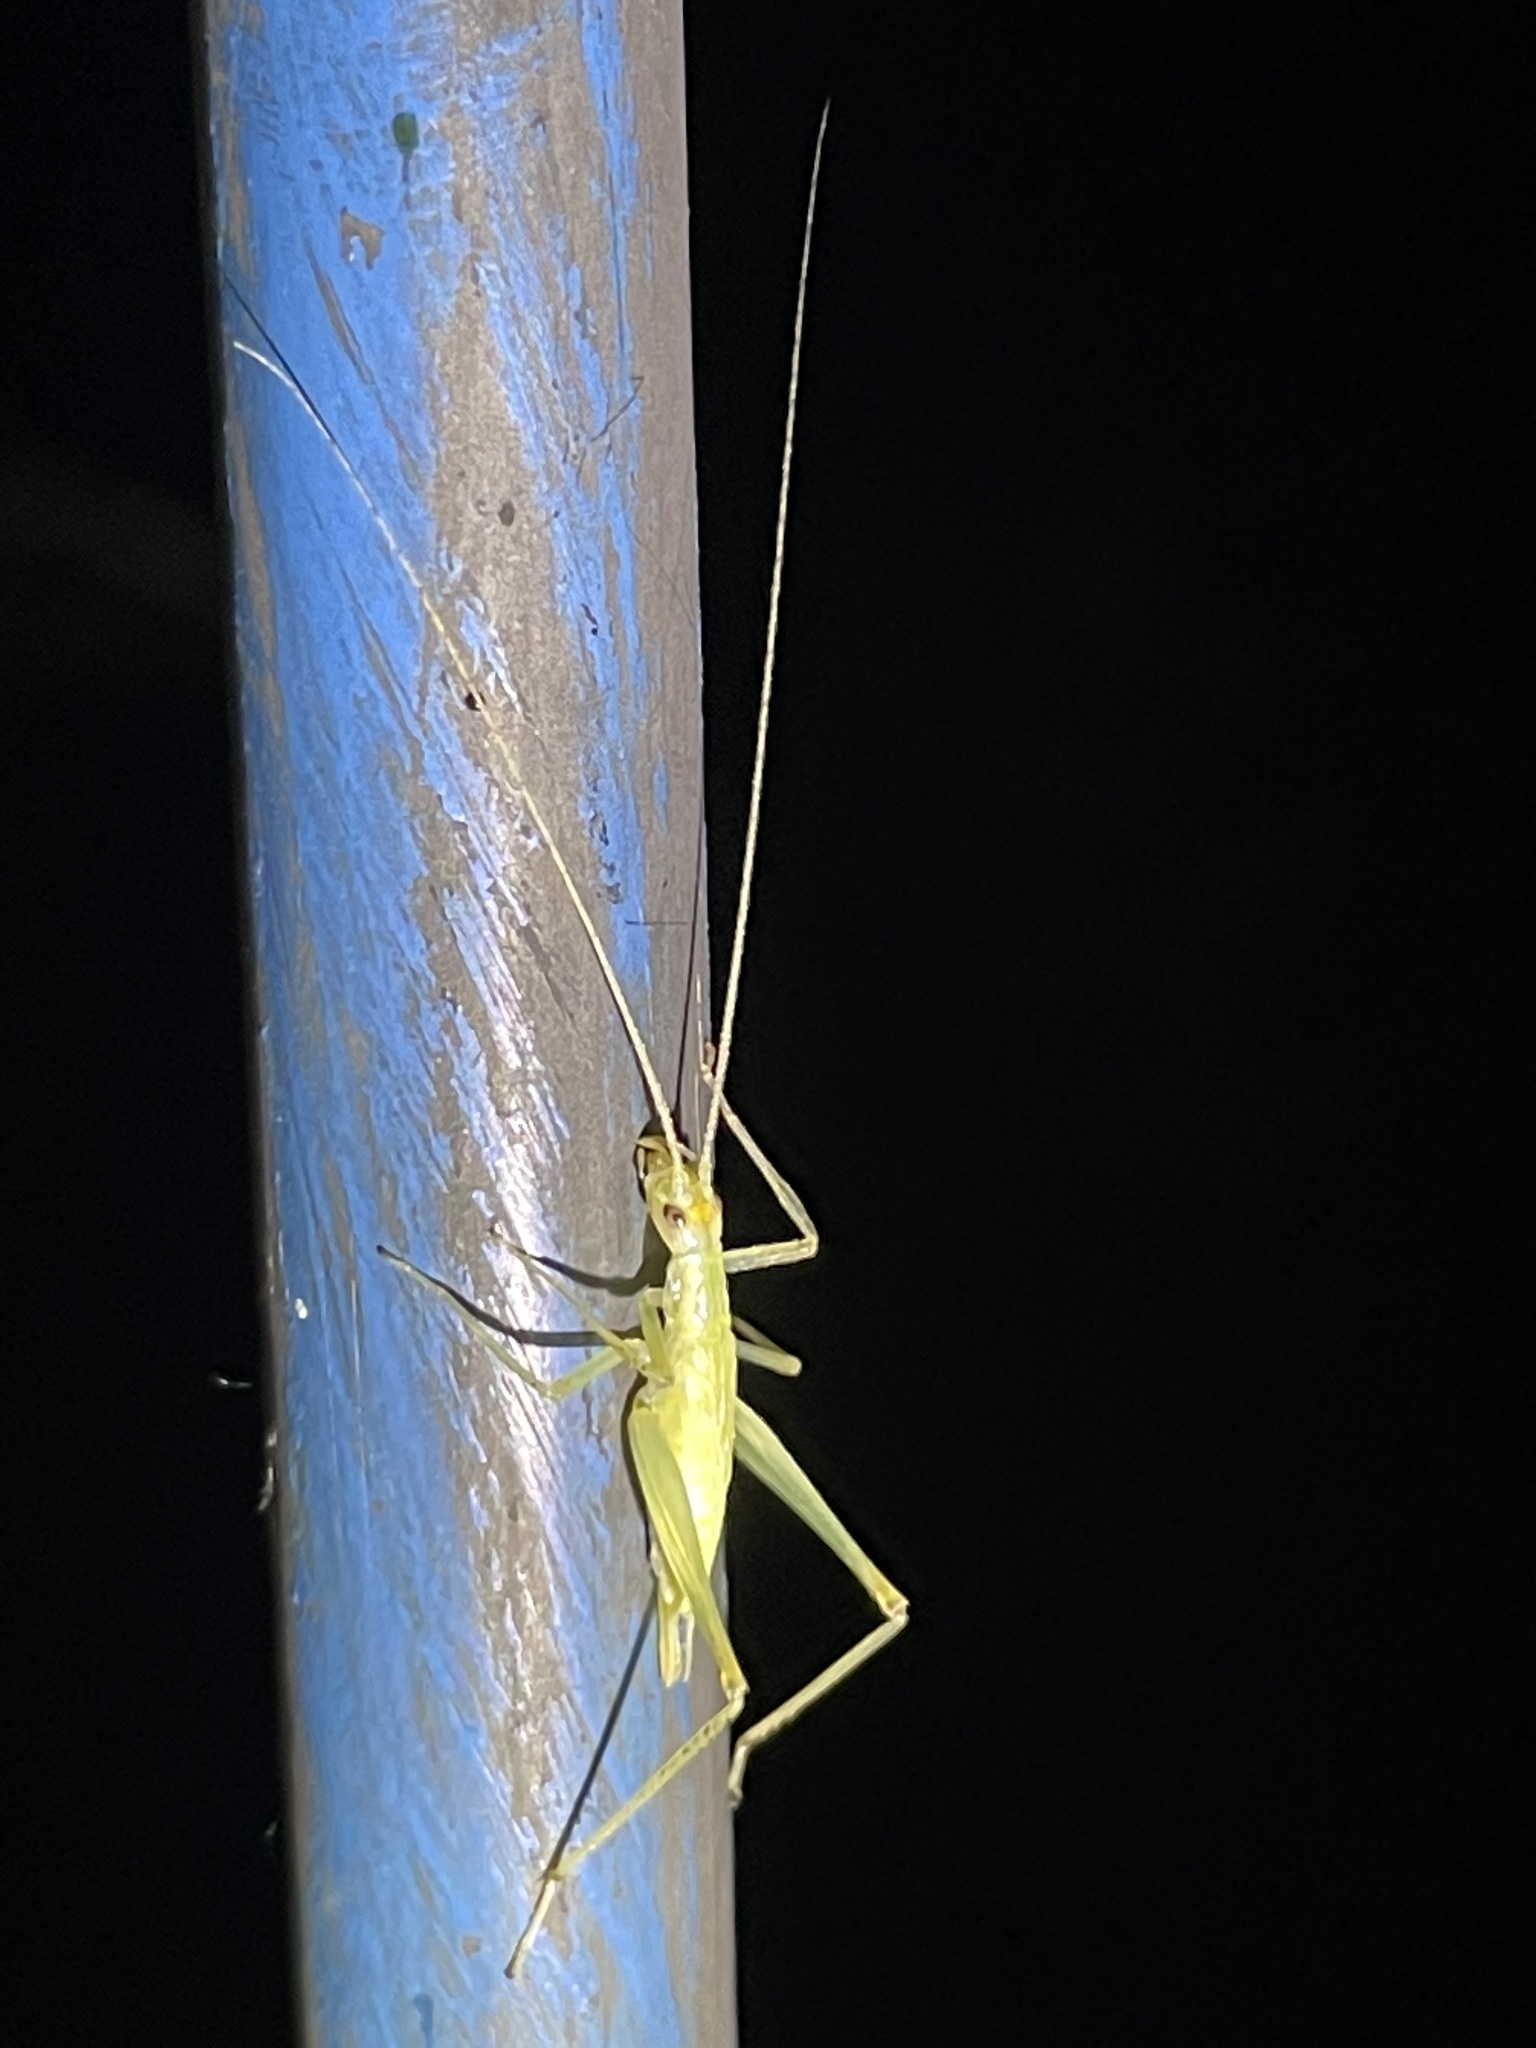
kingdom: Animalia
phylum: Arthropoda
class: Insecta
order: Orthoptera
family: Gryllidae
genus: Oecanthus
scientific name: Oecanthus niveus
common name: Narrow-winged tree cricket
